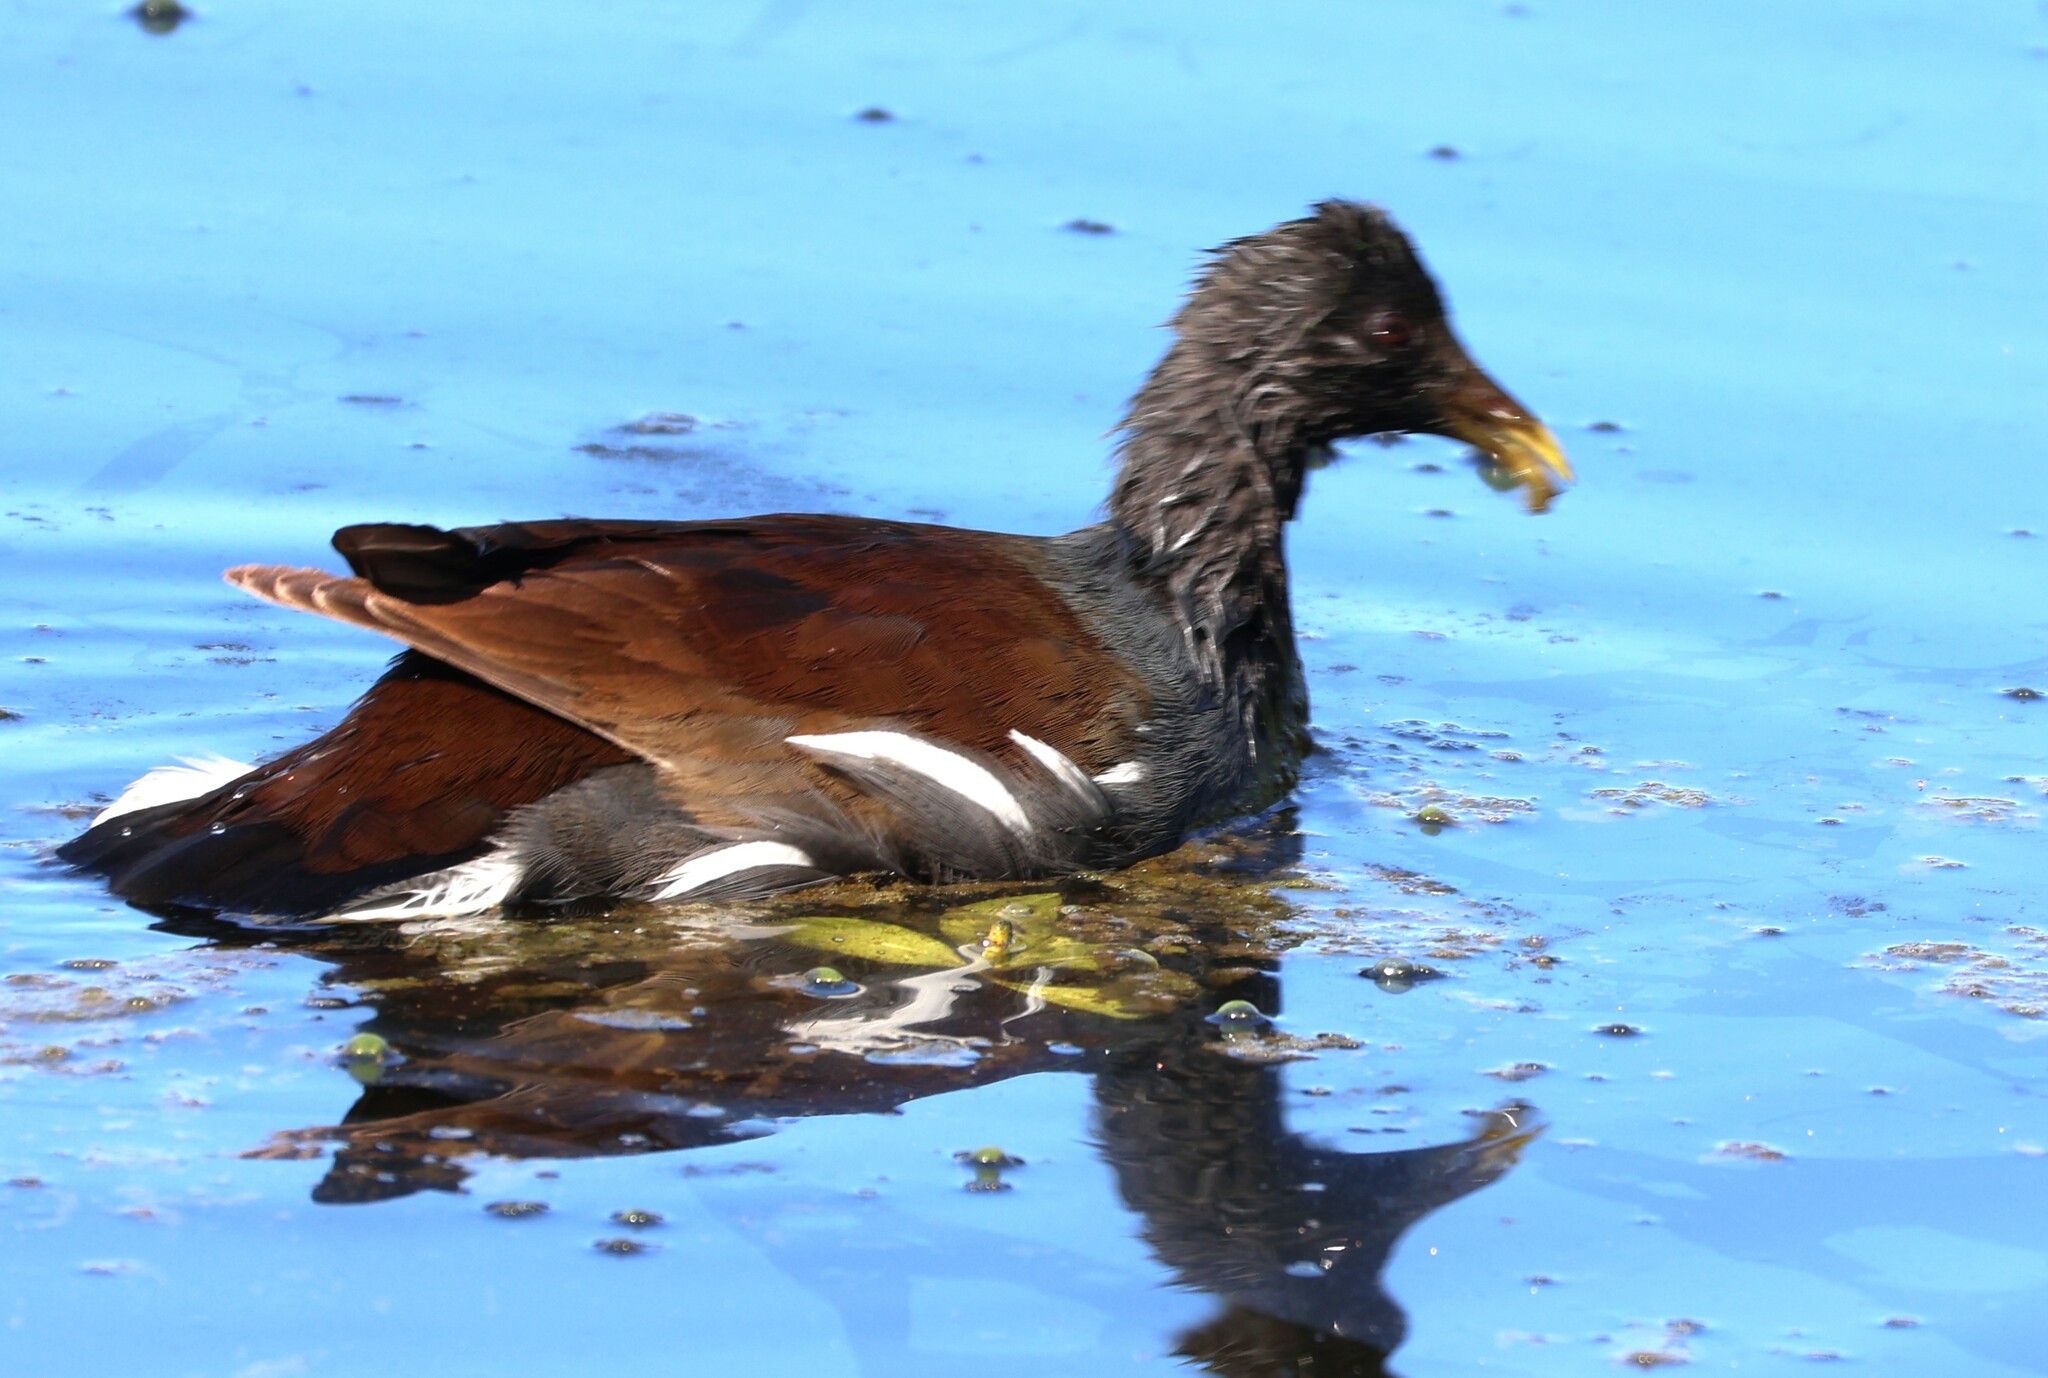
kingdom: Animalia
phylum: Chordata
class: Aves
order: Gruiformes
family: Rallidae
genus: Gallinula
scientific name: Gallinula chloropus
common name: Common moorhen
